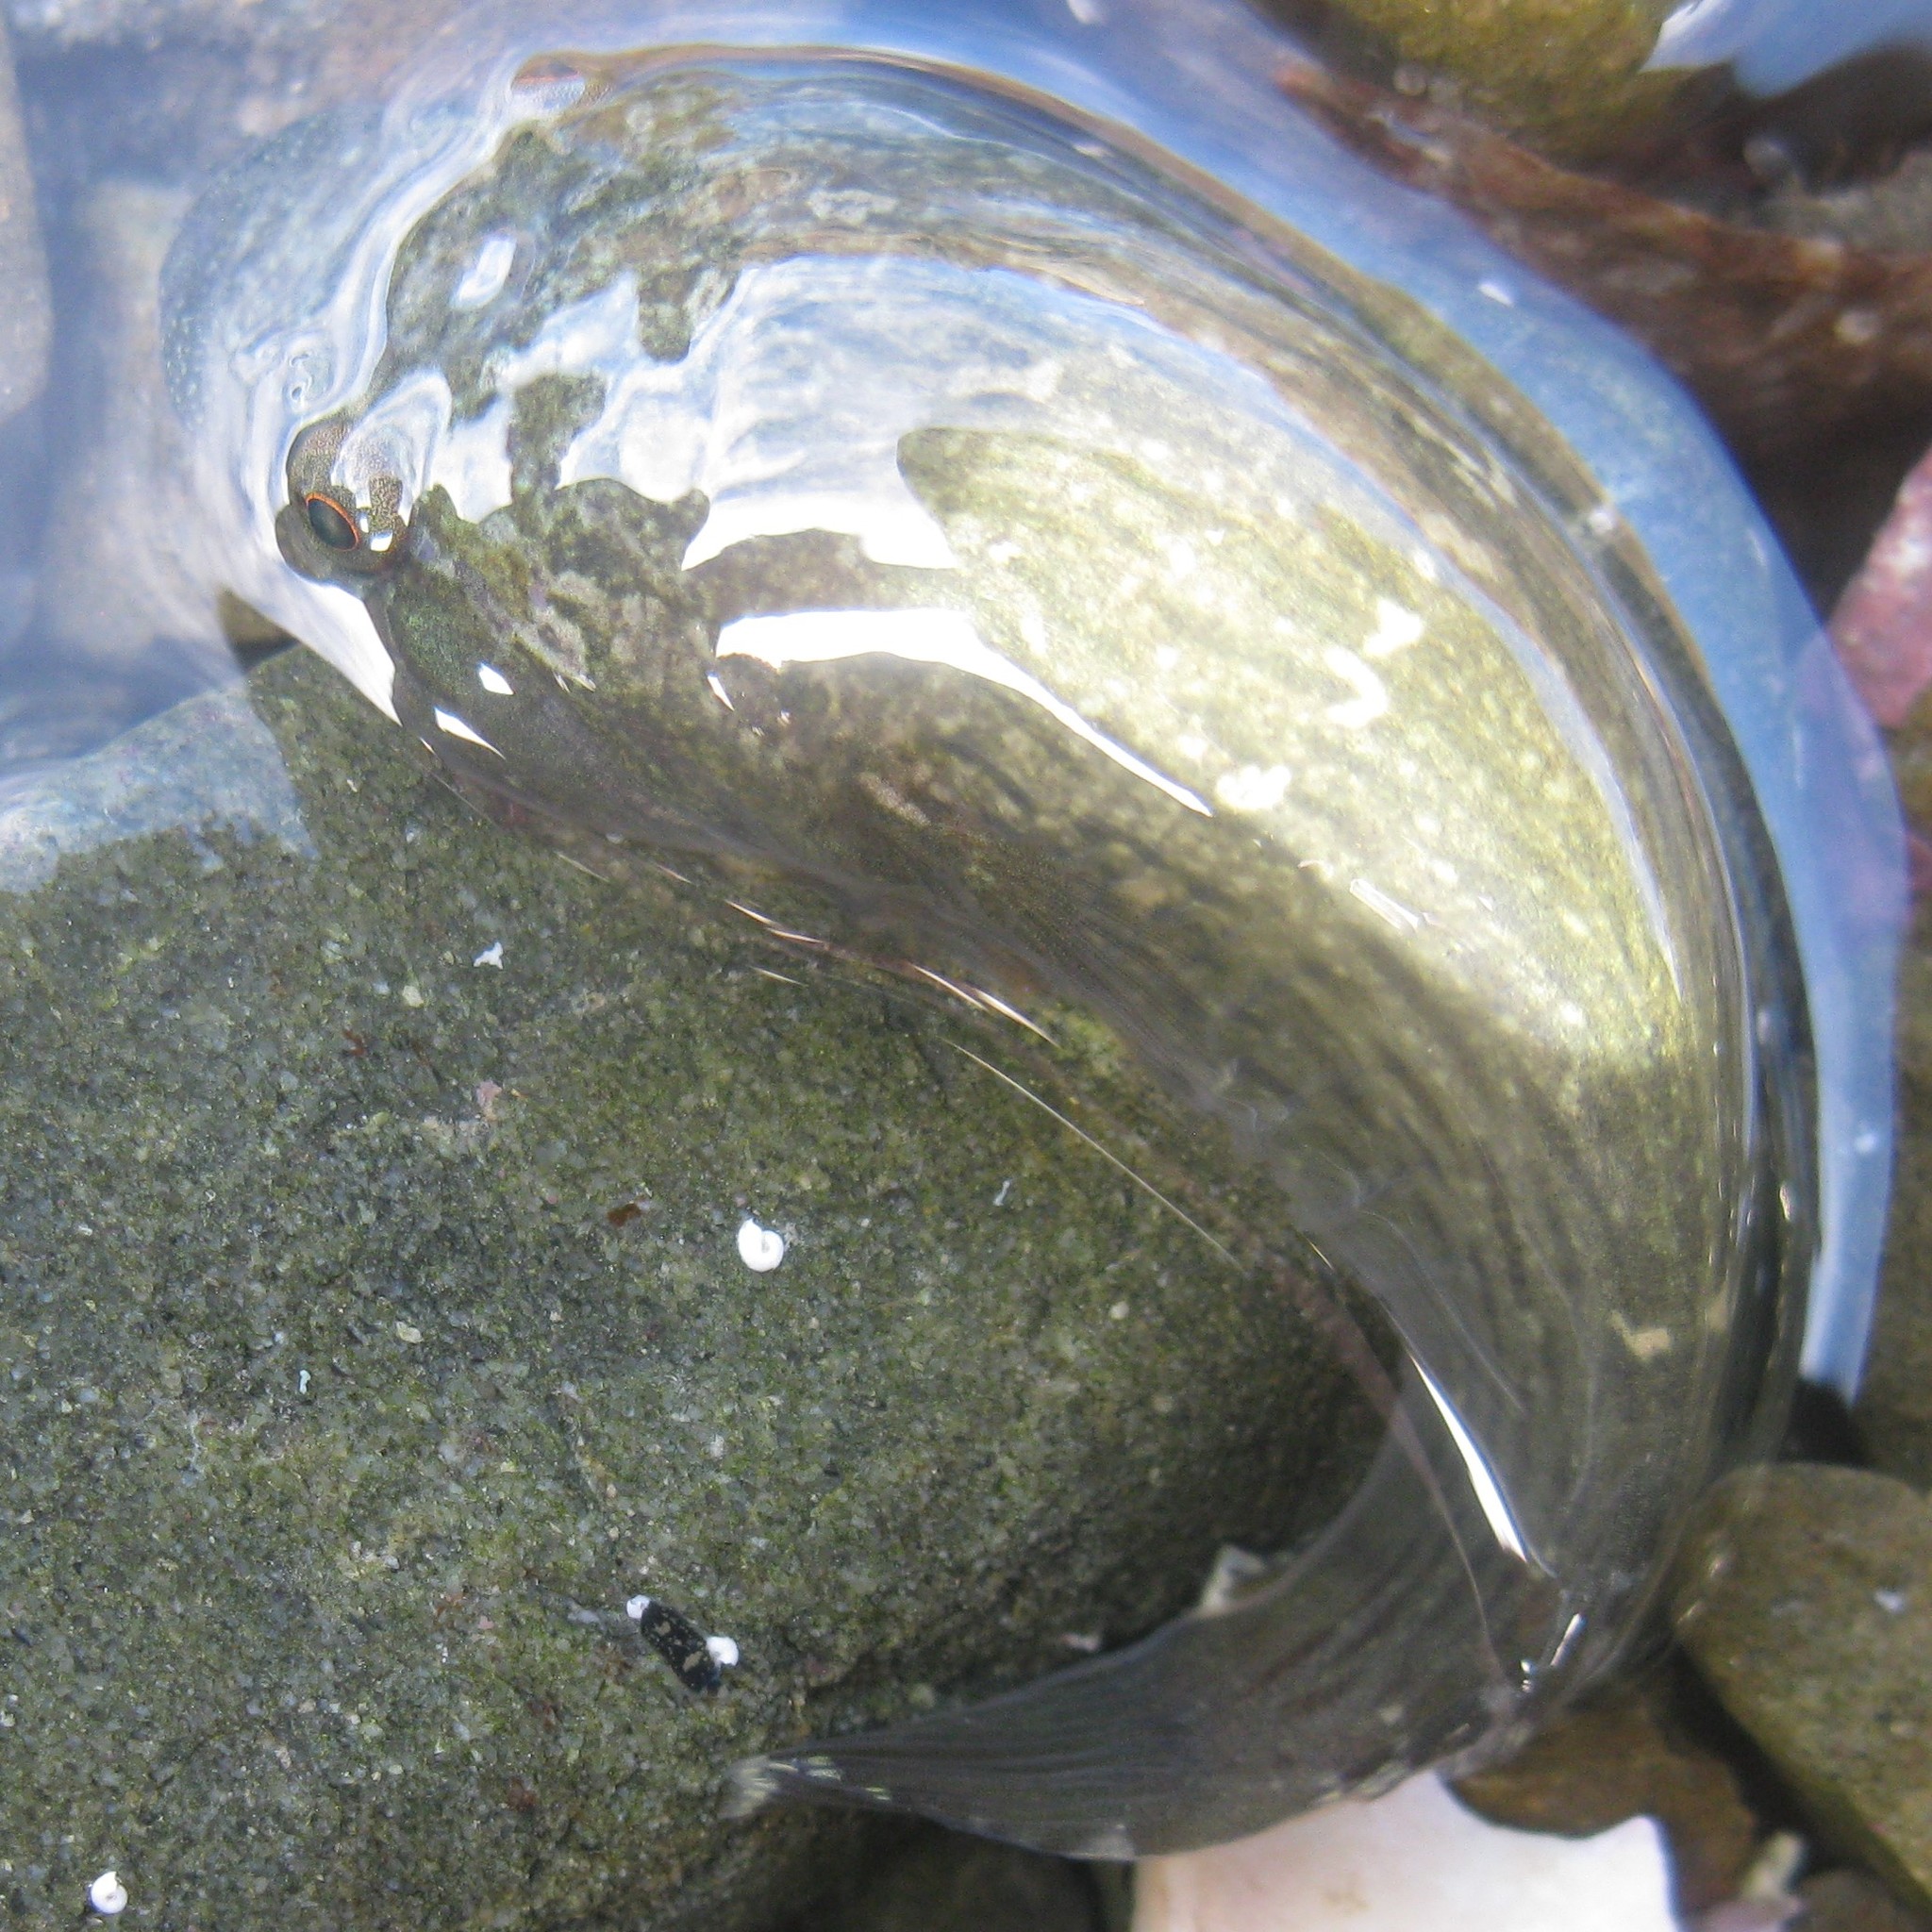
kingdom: Animalia
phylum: Chordata
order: Gobiesociformes
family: Gobiesocidae
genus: Trachelochismus
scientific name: Trachelochismus pinnulatus
